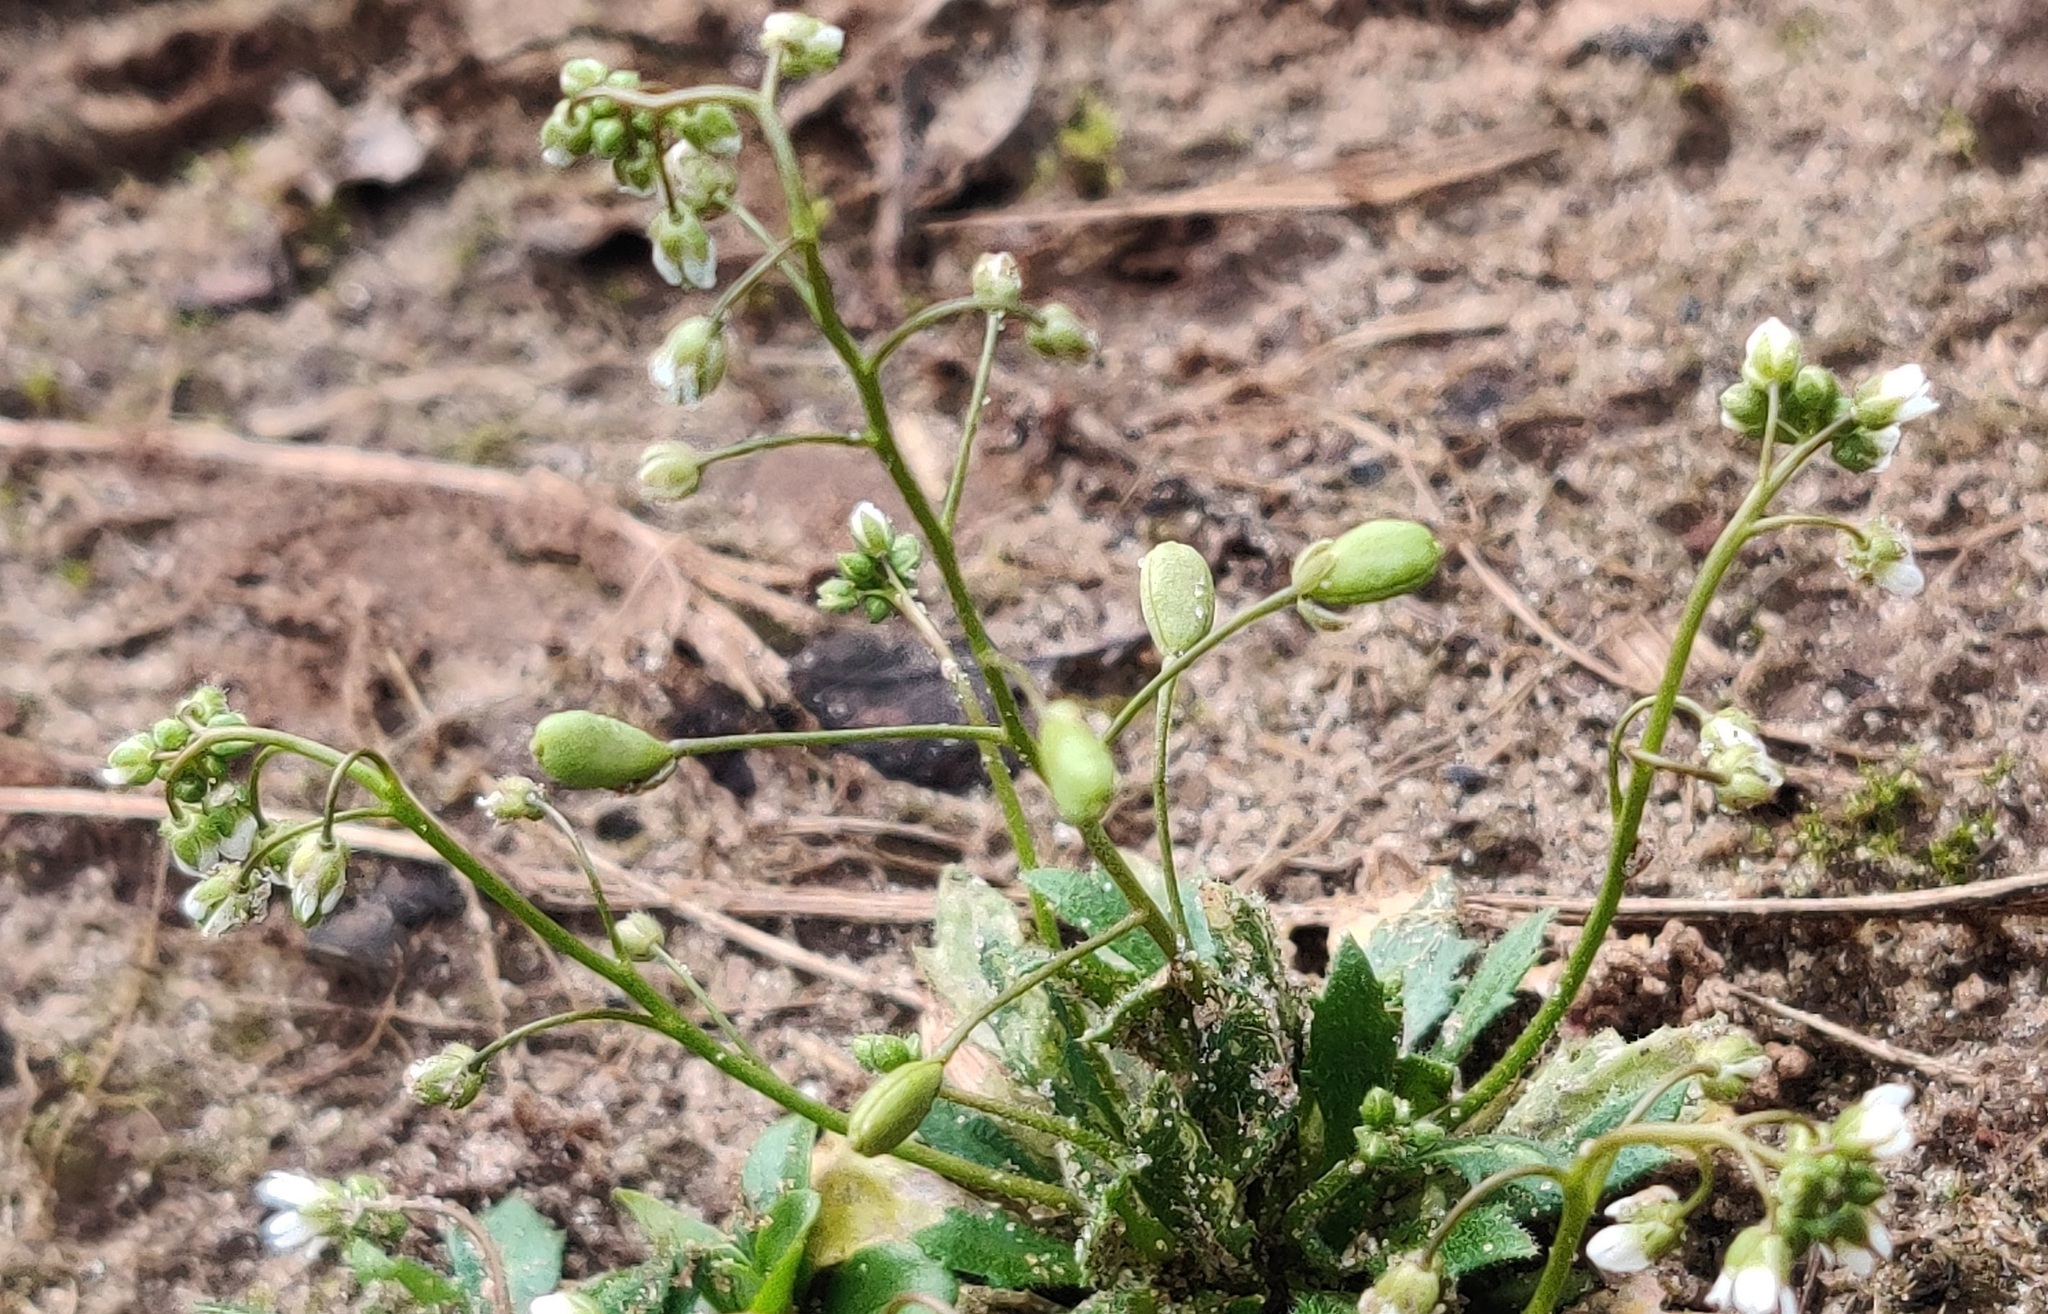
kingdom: Plantae
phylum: Tracheophyta
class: Magnoliopsida
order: Brassicales
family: Brassicaceae
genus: Draba
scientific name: Draba verna
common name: Spring draba
